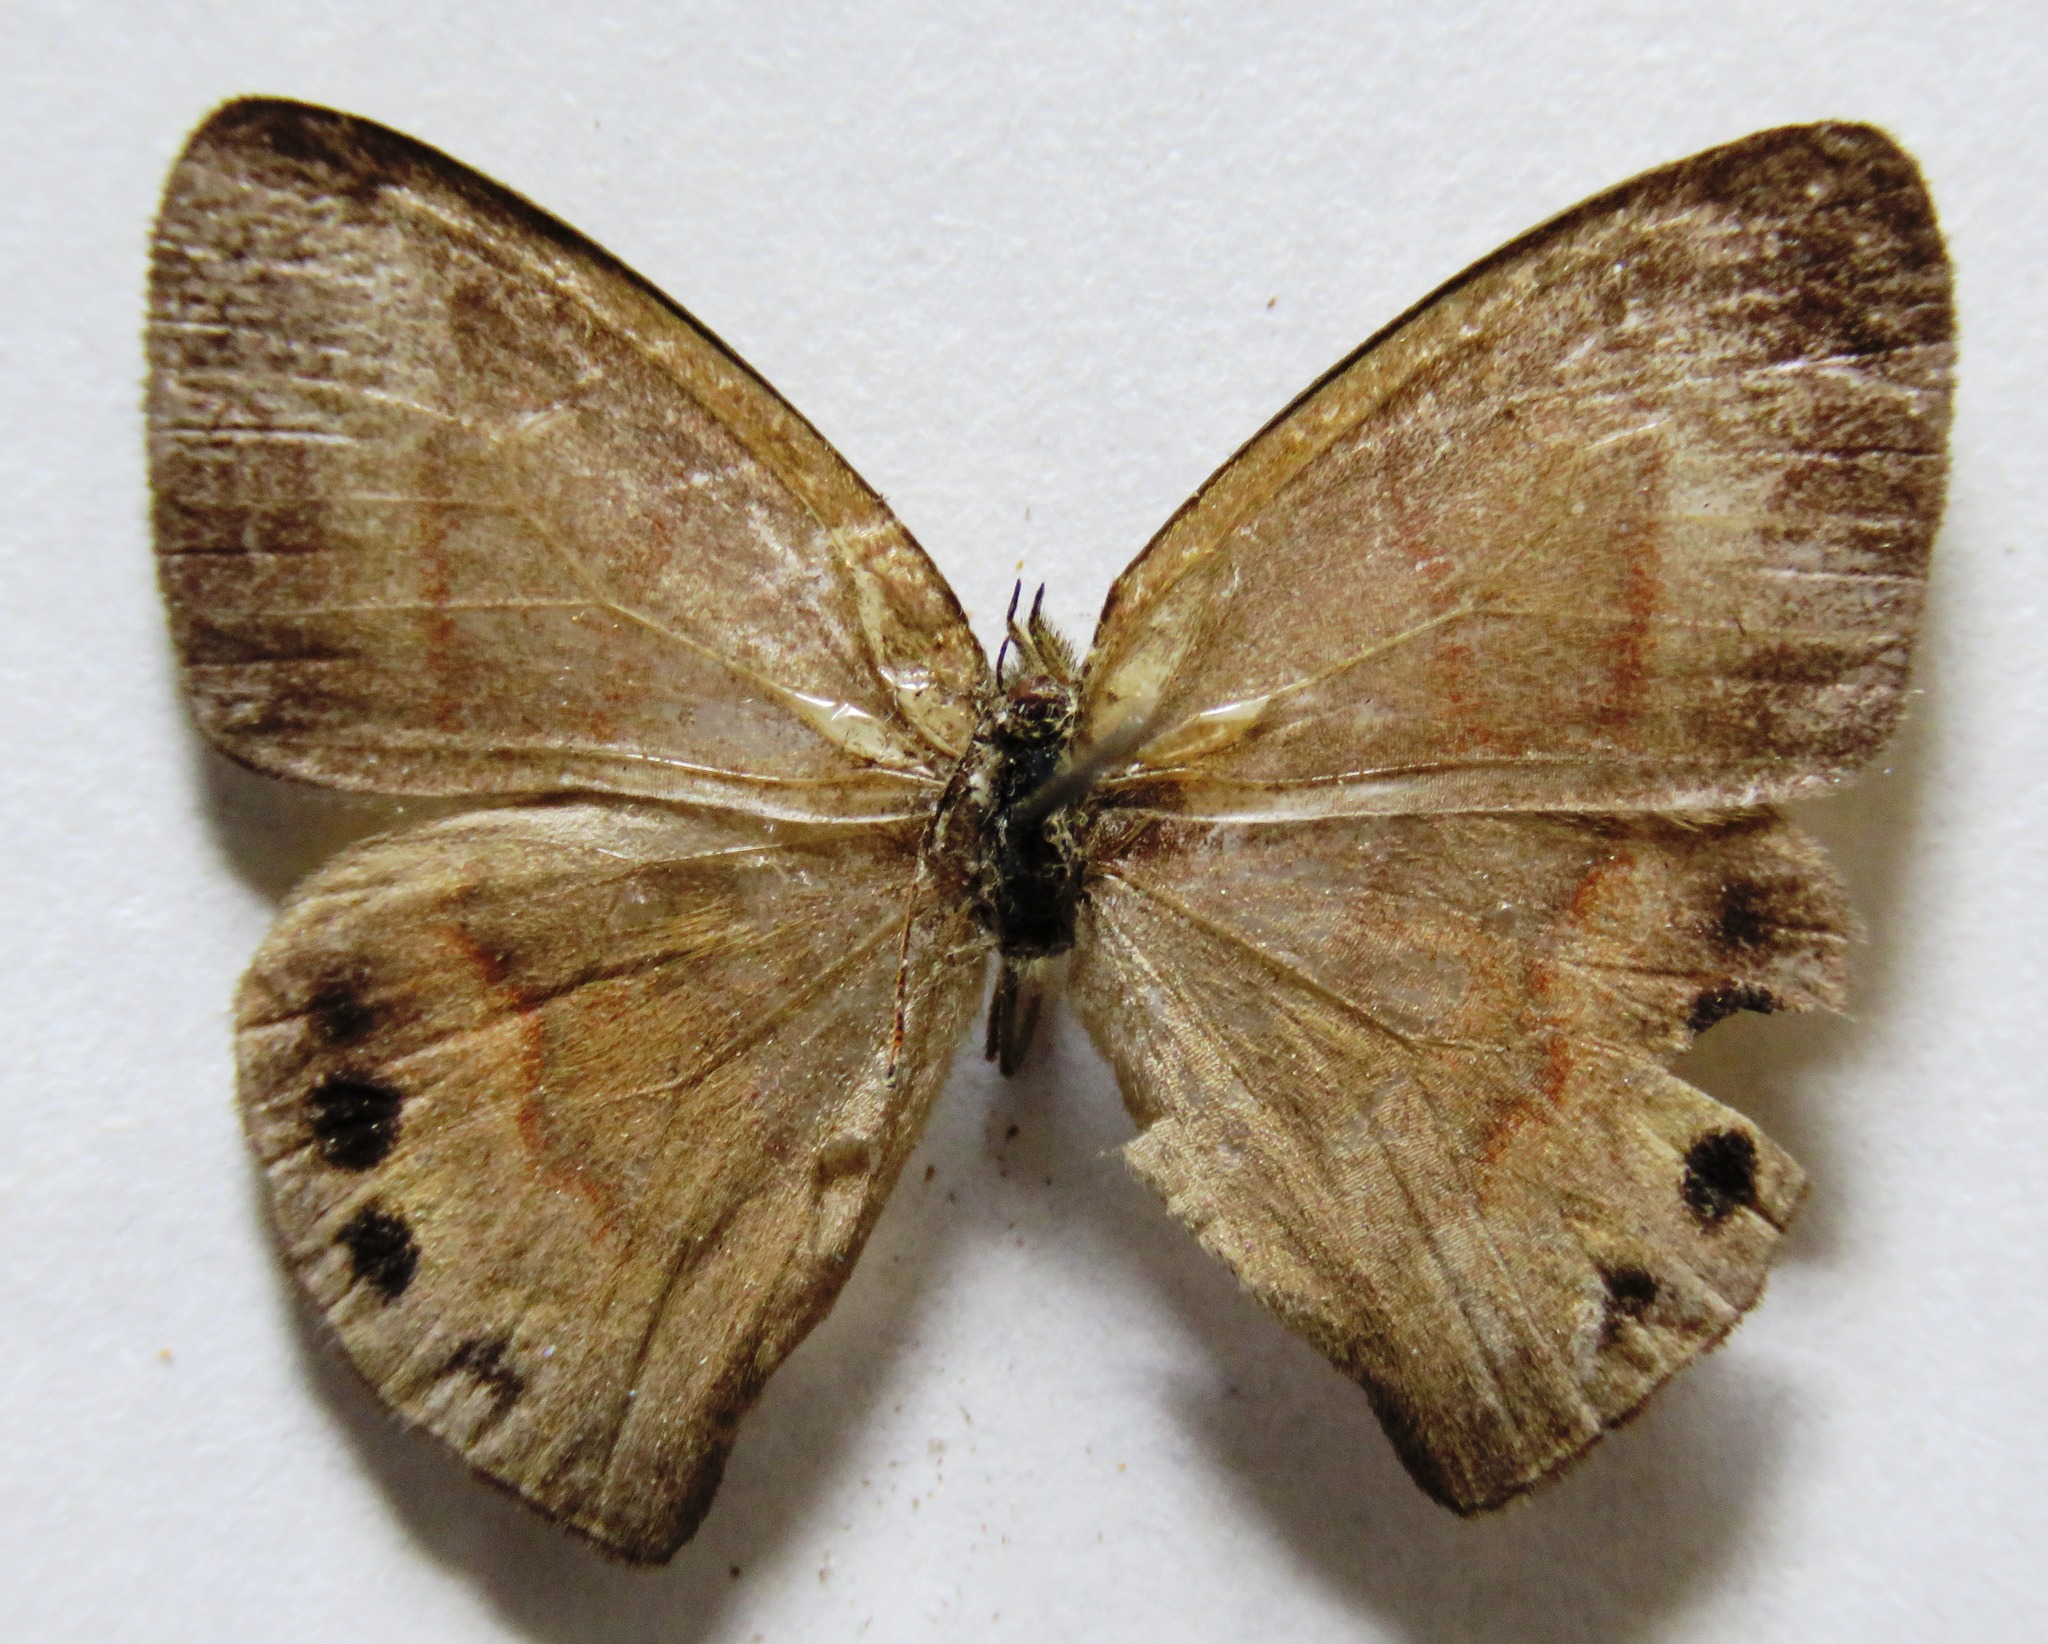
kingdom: Animalia
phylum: Arthropoda
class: Insecta
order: Lepidoptera
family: Nymphalidae
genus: Euptychia
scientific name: Euptychia
